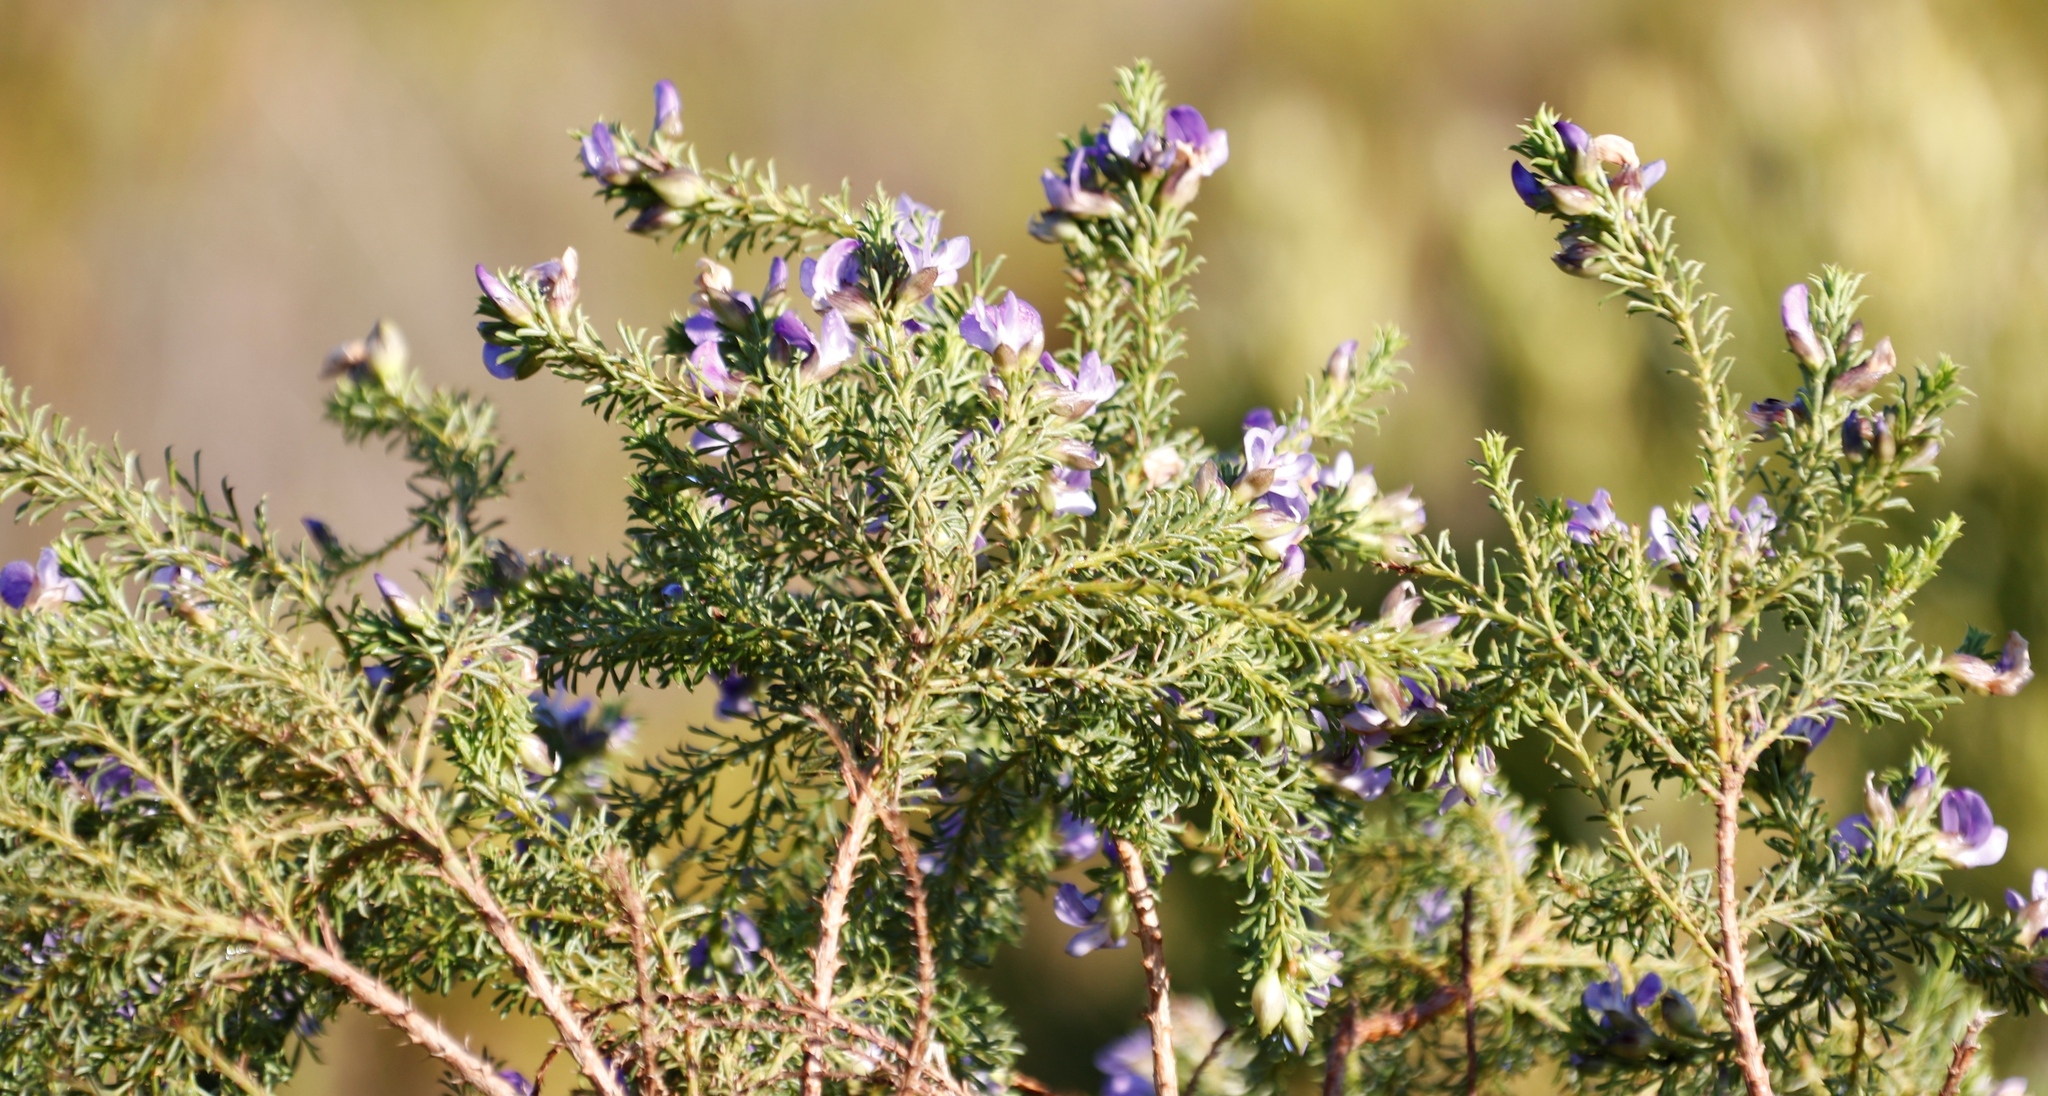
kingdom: Plantae
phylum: Tracheophyta
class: Magnoliopsida
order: Fabales
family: Fabaceae
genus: Psoralea
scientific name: Psoralea
